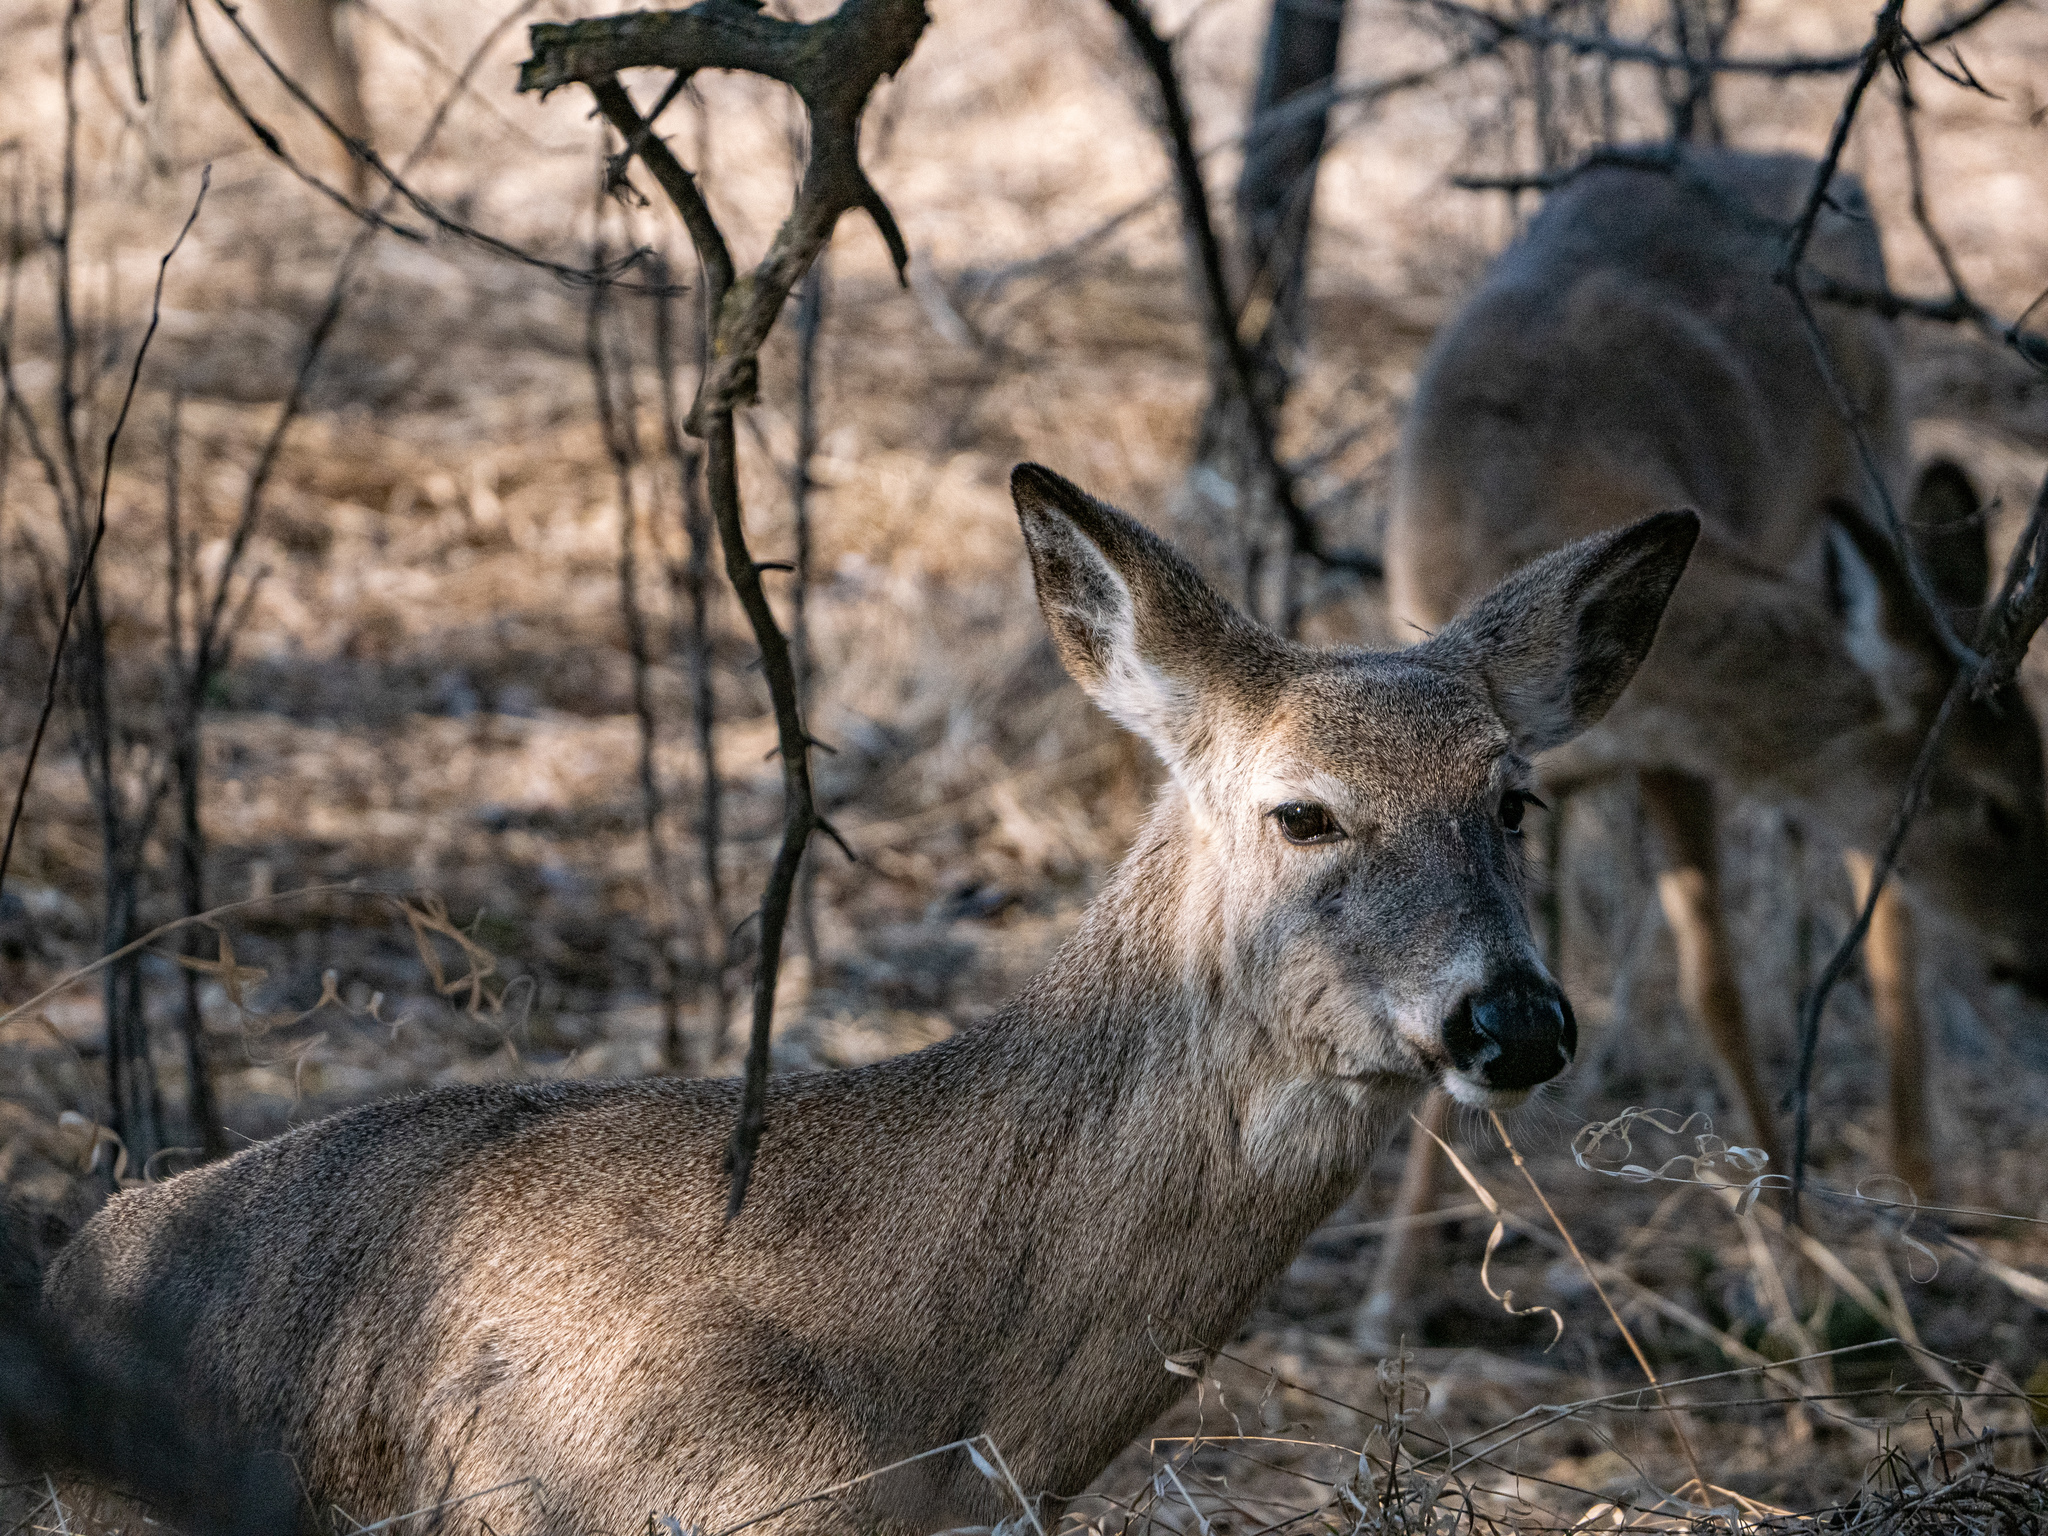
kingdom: Animalia
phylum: Chordata
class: Mammalia
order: Artiodactyla
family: Cervidae
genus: Odocoileus
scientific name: Odocoileus virginianus
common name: White-tailed deer
